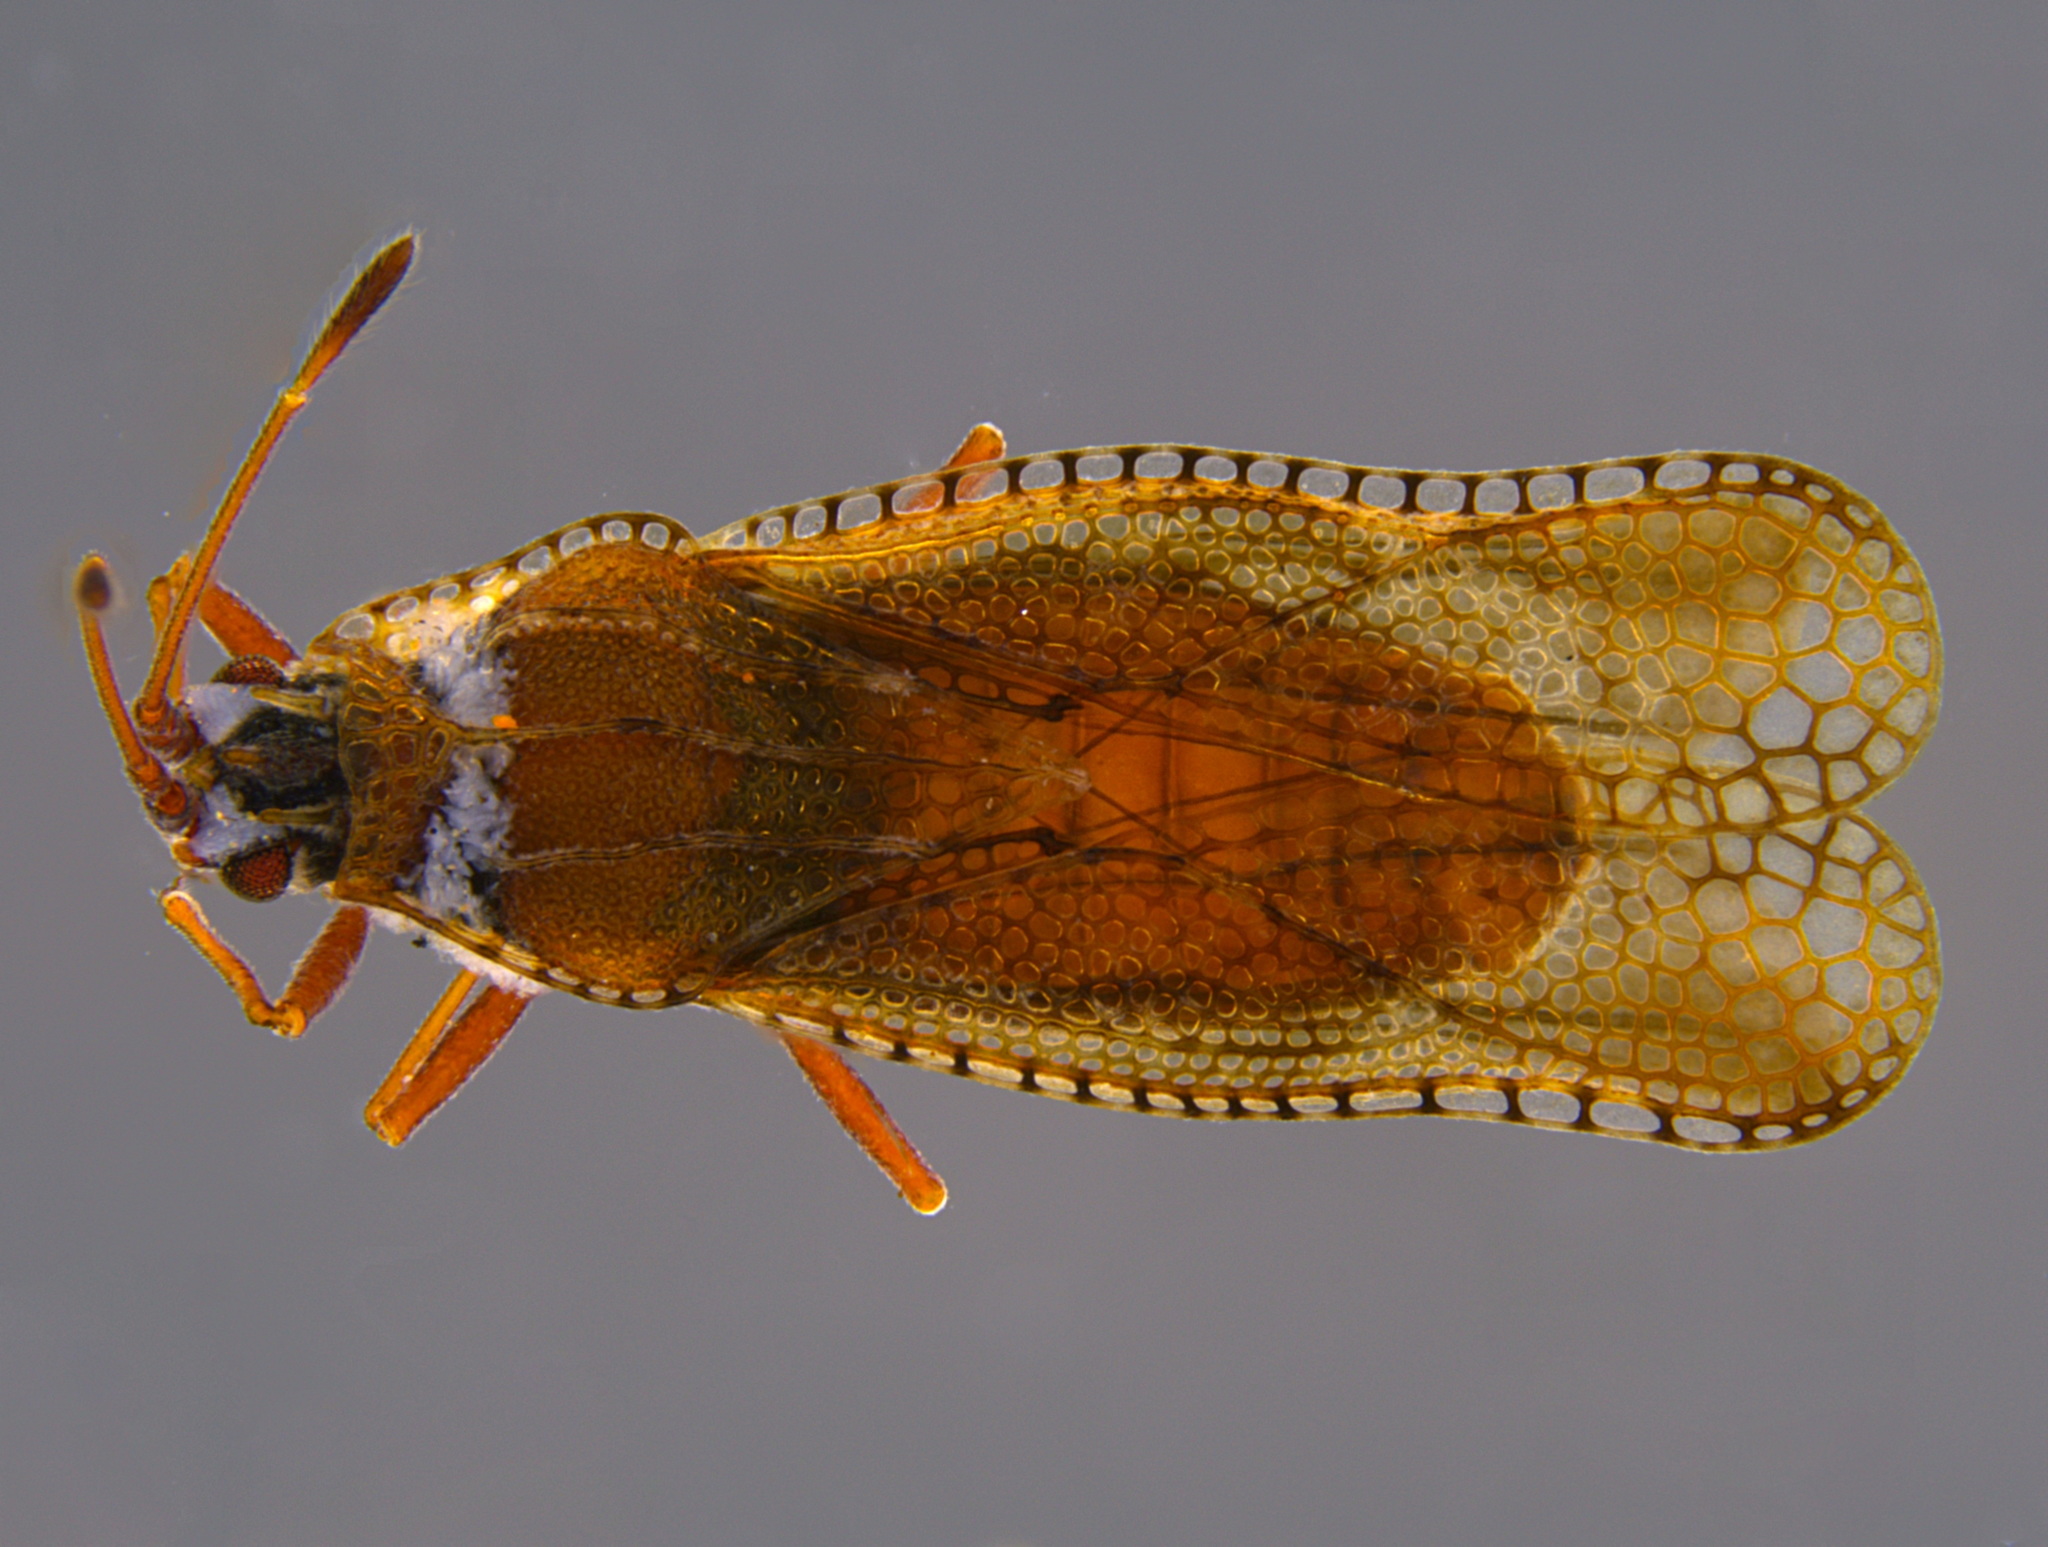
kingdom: Animalia
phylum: Arthropoda
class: Insecta
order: Hemiptera
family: Tingidae
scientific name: Tingidae
